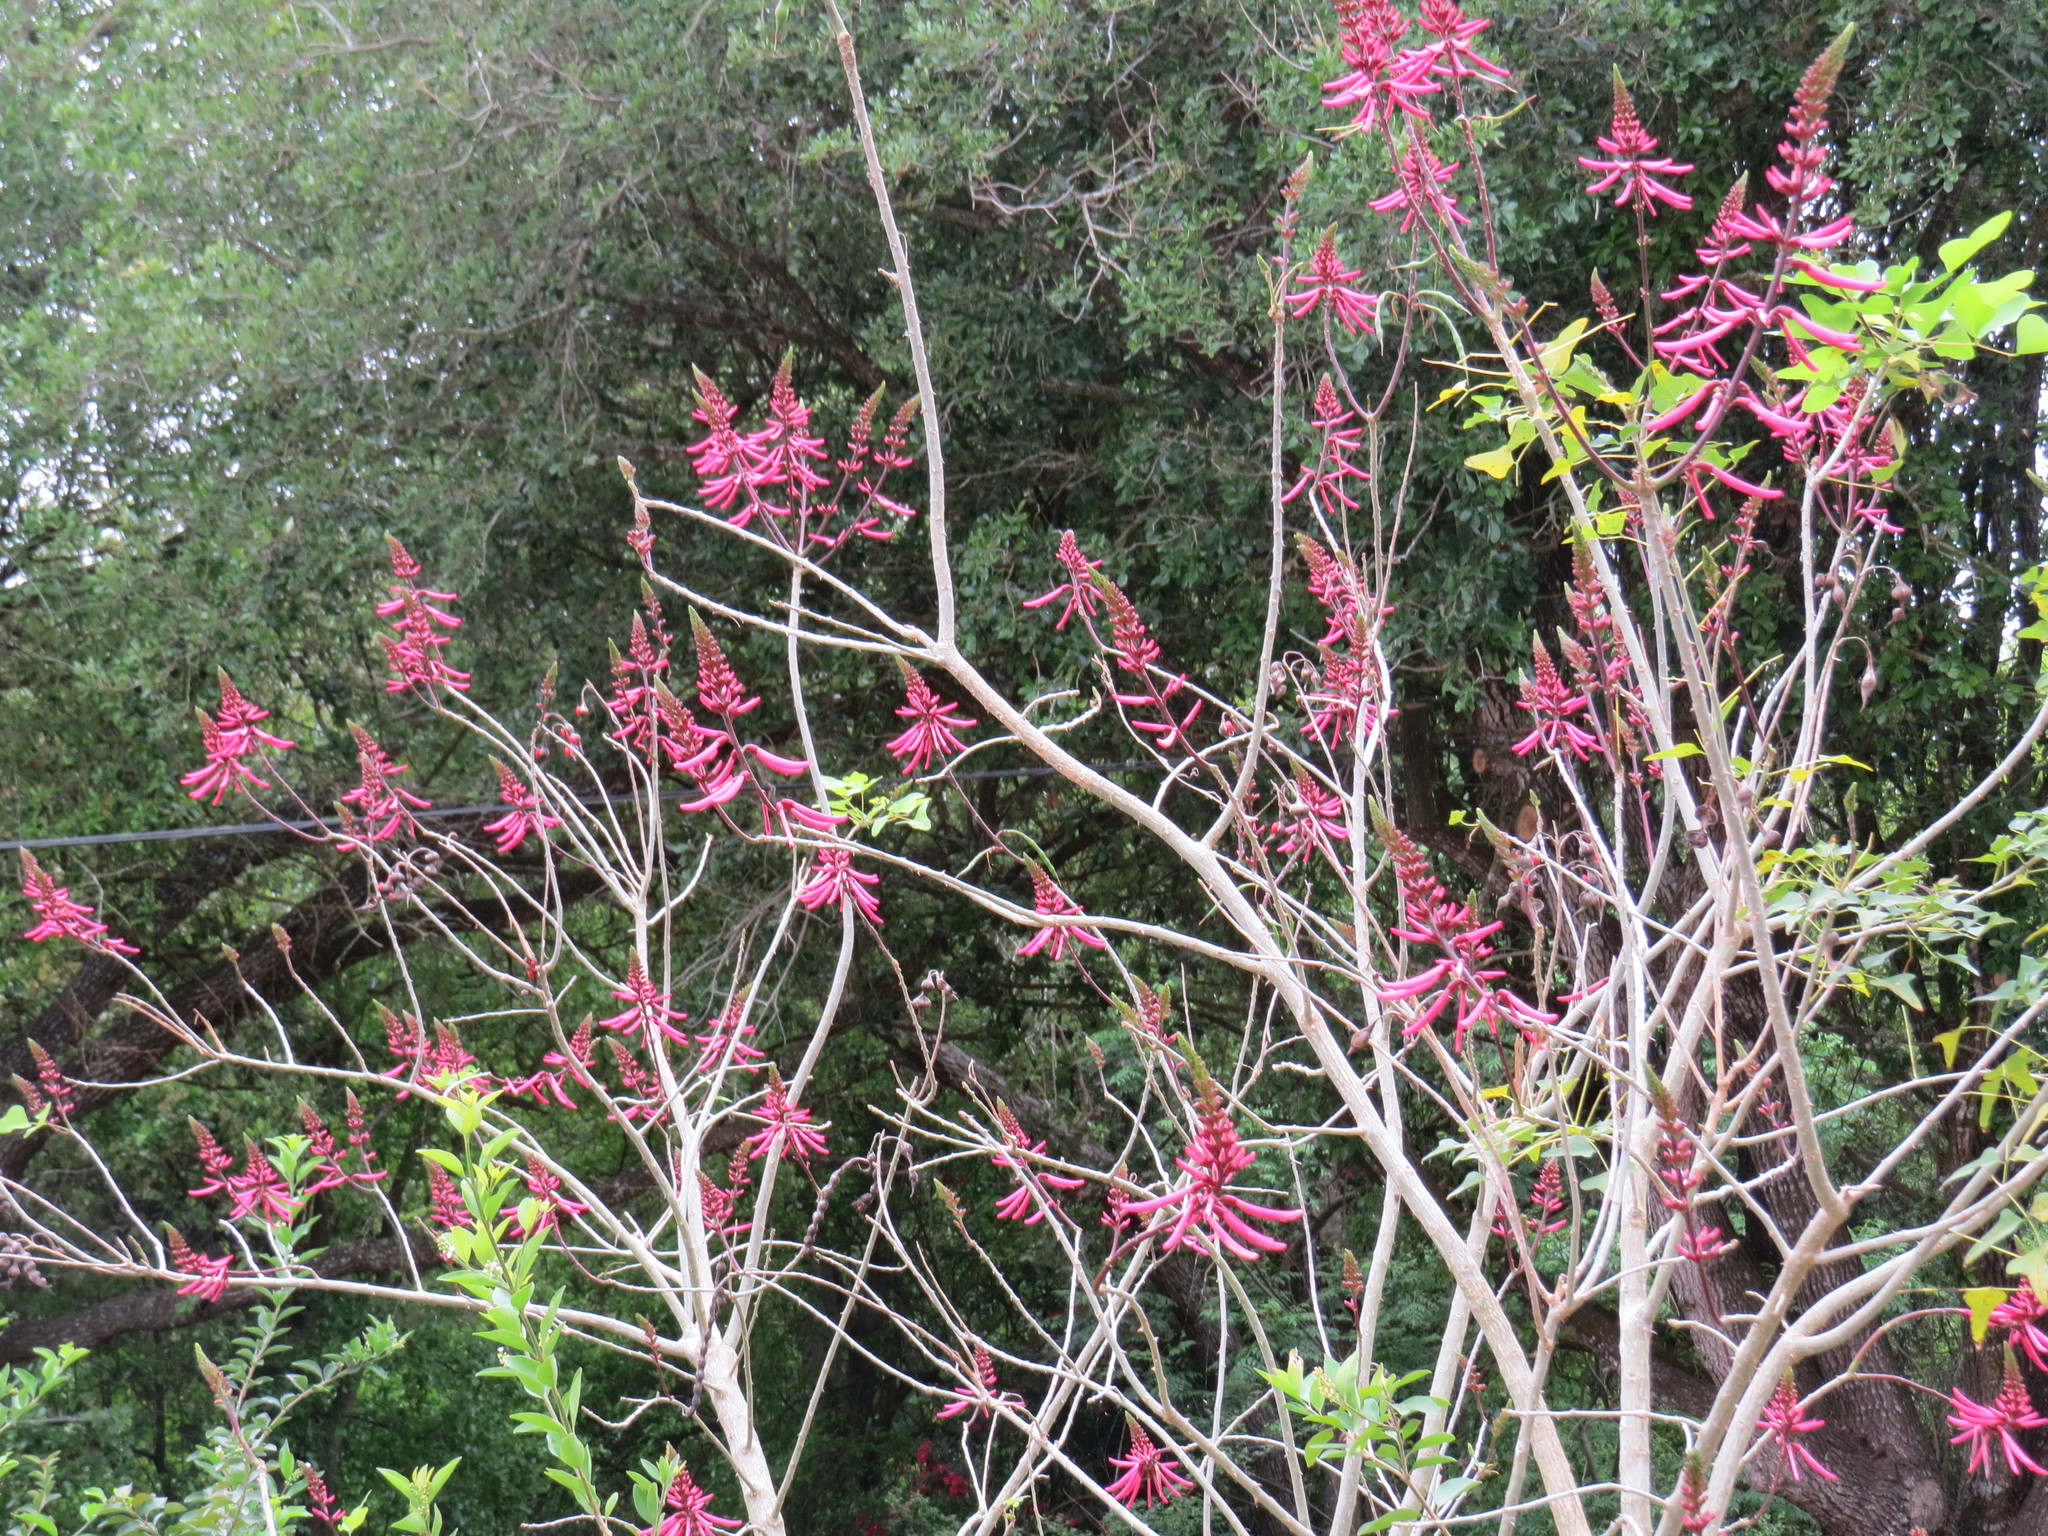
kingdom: Plantae
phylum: Tracheophyta
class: Magnoliopsida
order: Fabales
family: Fabaceae
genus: Erythrina
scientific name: Erythrina herbacea
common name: Coral-bean
